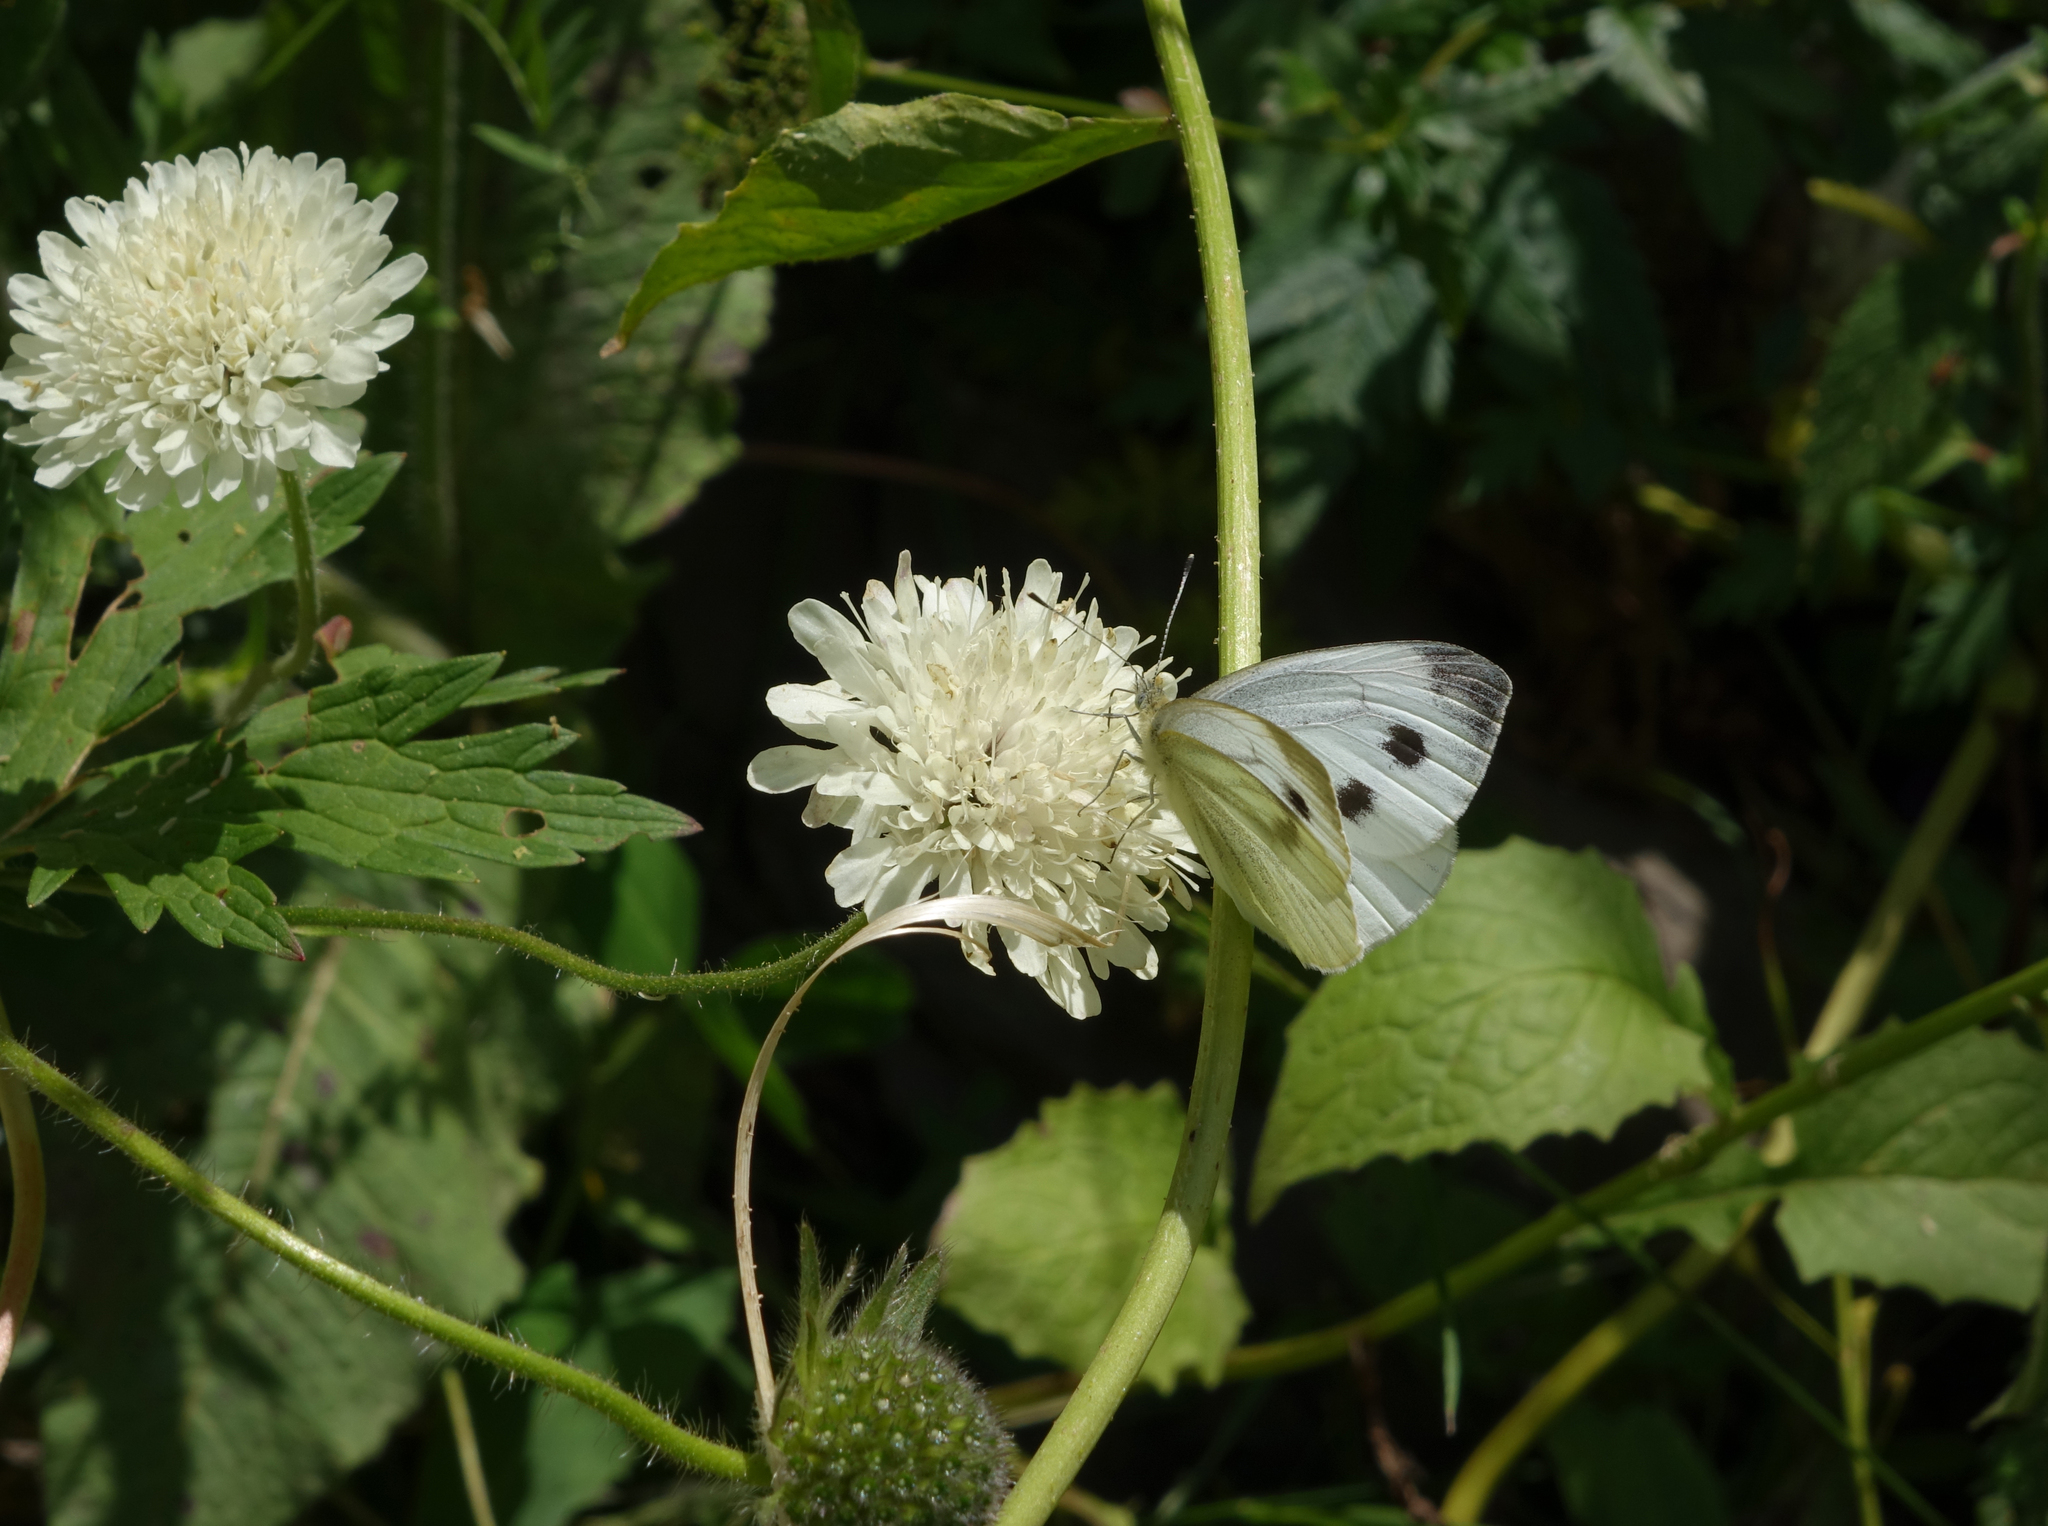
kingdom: Animalia
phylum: Arthropoda
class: Insecta
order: Lepidoptera
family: Pieridae
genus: Pieris
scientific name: Pieris napi
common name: Green-veined white
